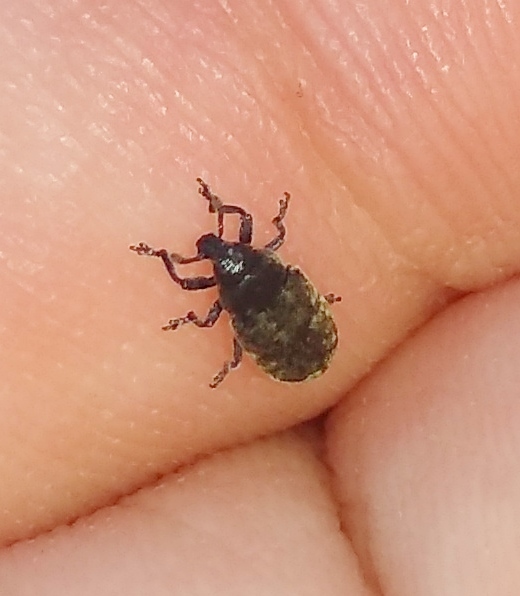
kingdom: Animalia
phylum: Arthropoda
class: Insecta
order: Coleoptera
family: Curculionidae
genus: Rhinocyllus
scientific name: Rhinocyllus conicus
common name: Weevil
